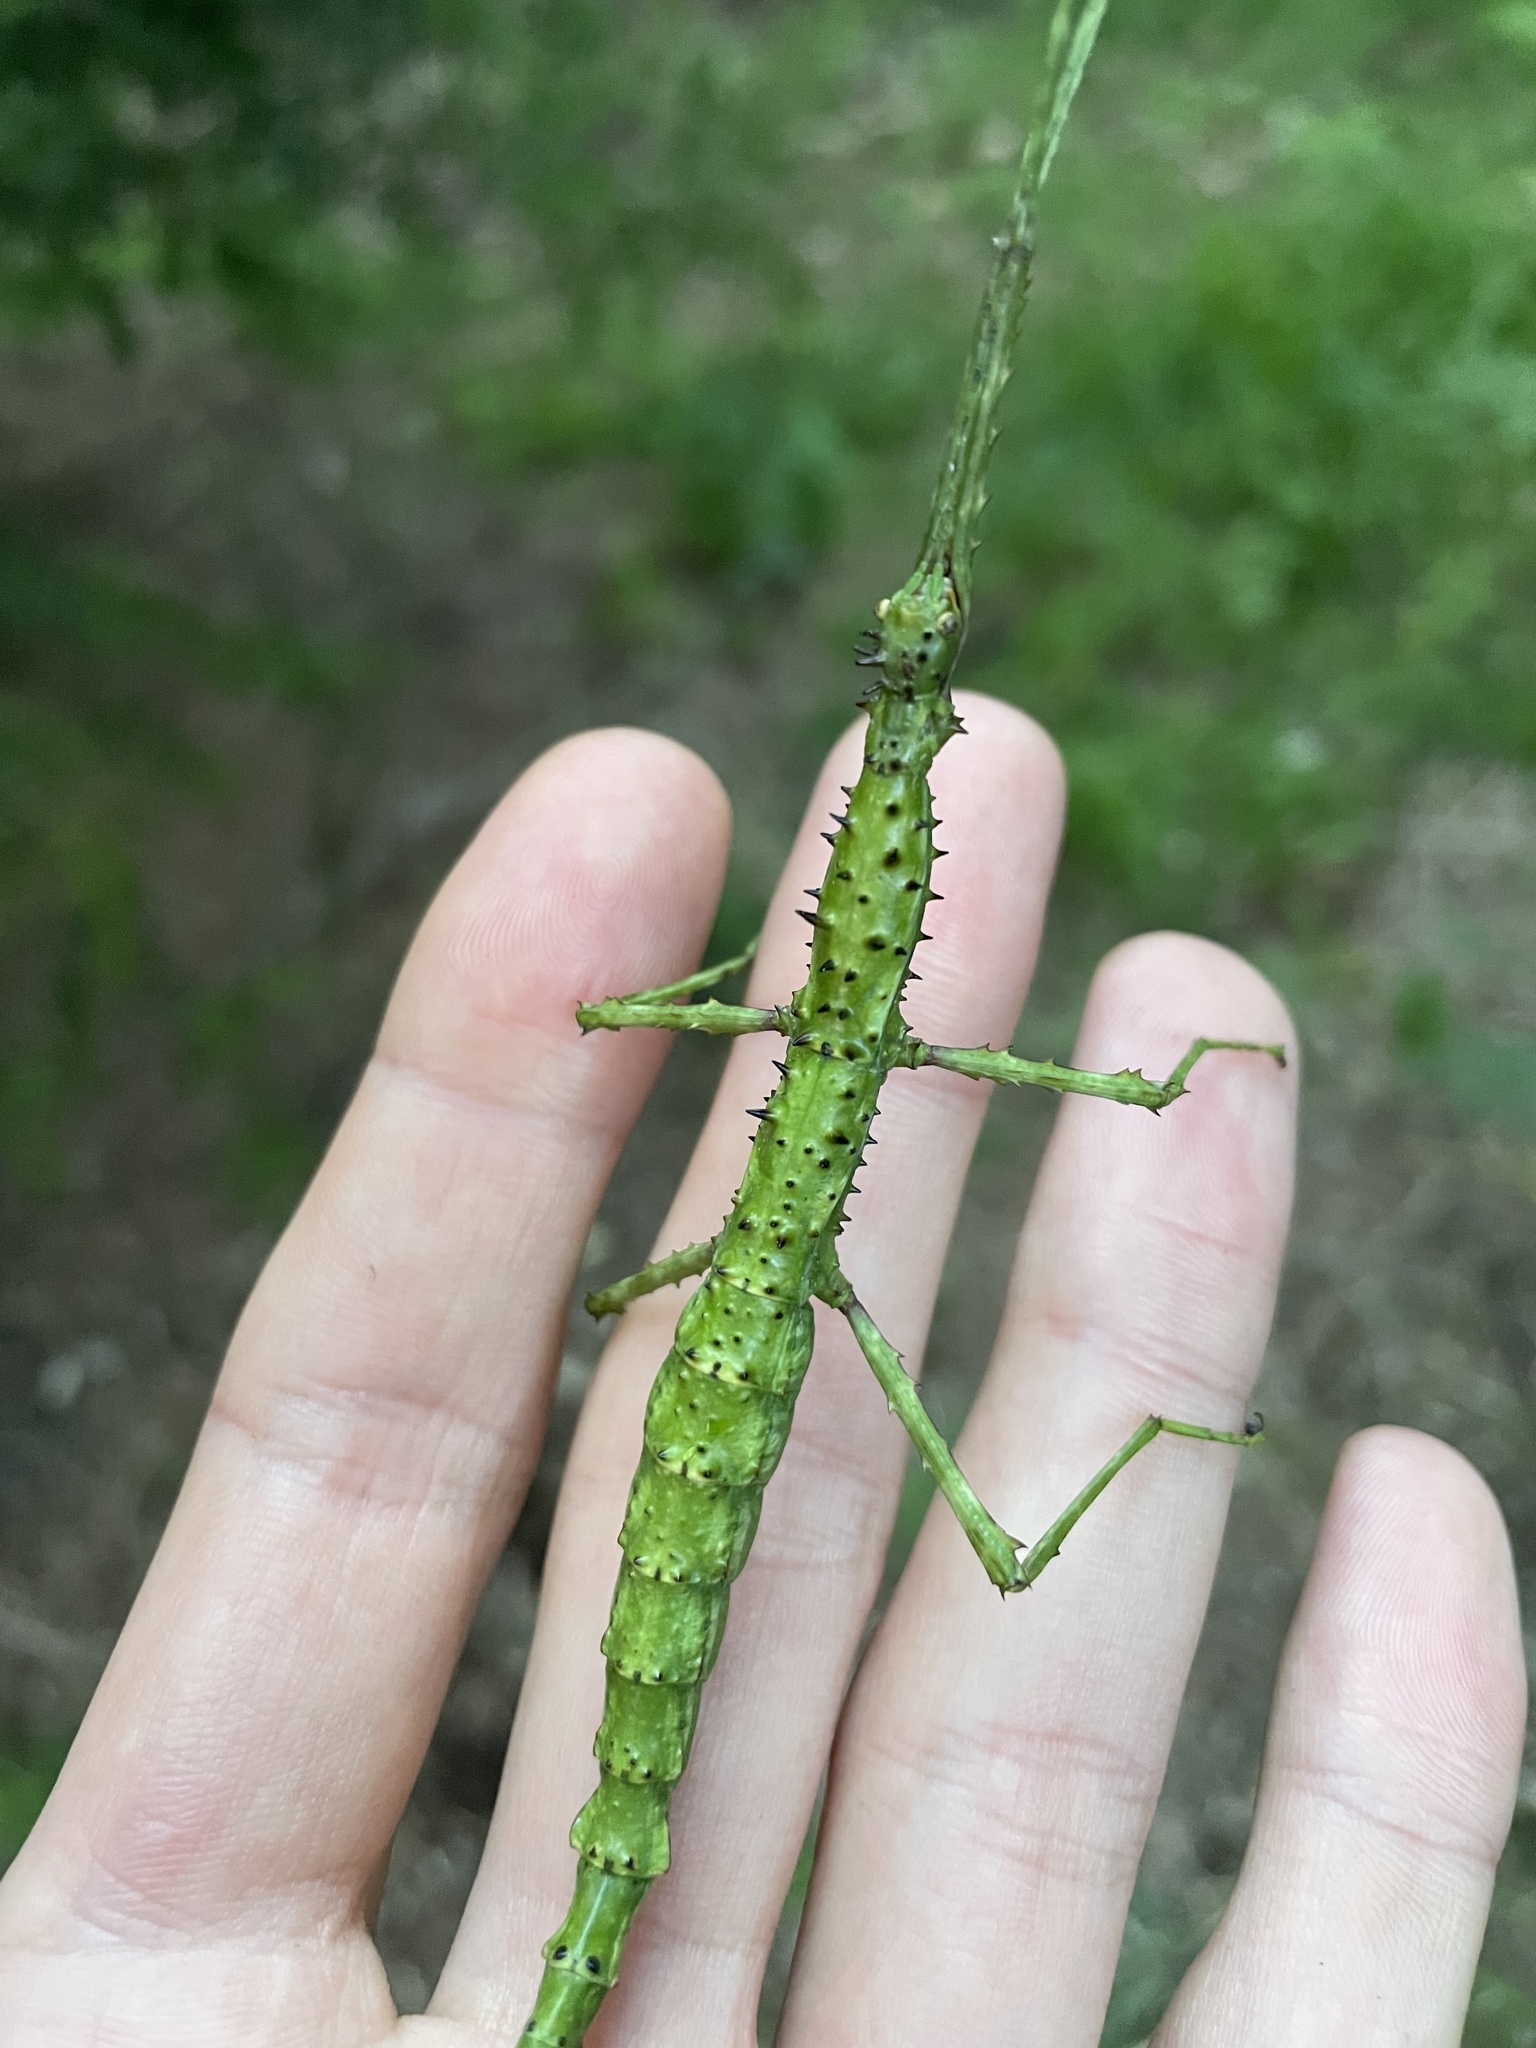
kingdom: Animalia
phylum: Arthropoda
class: Insecta
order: Phasmida
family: Phasmatidae
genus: Acanthoxyla
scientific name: Acanthoxyla prasina
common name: Black-spined stick insect
